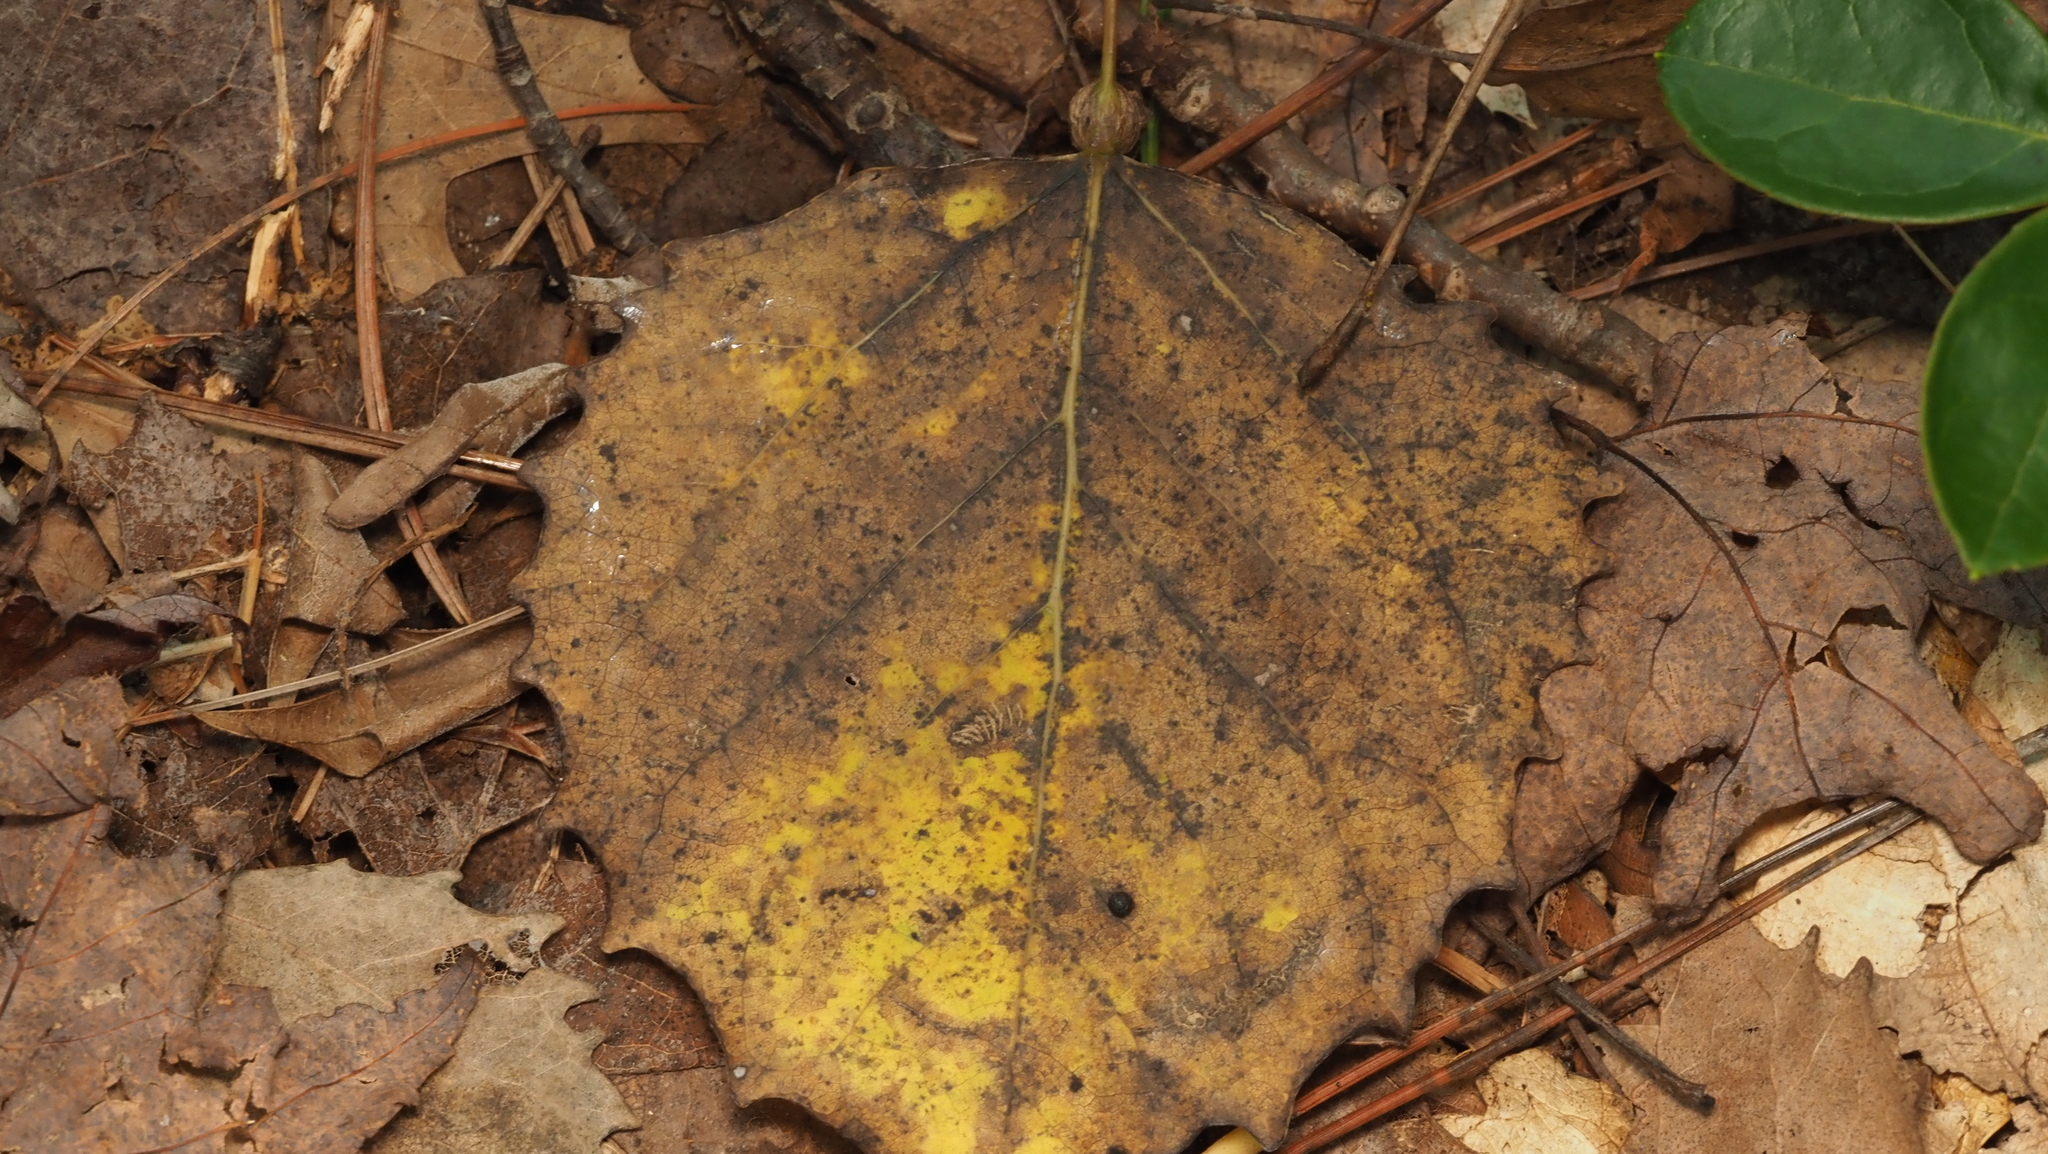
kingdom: Animalia
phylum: Arthropoda
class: Insecta
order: Lepidoptera
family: Nepticulidae
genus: Ectoedemia
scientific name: Ectoedemia populella
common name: Aspen petiole gall moth
